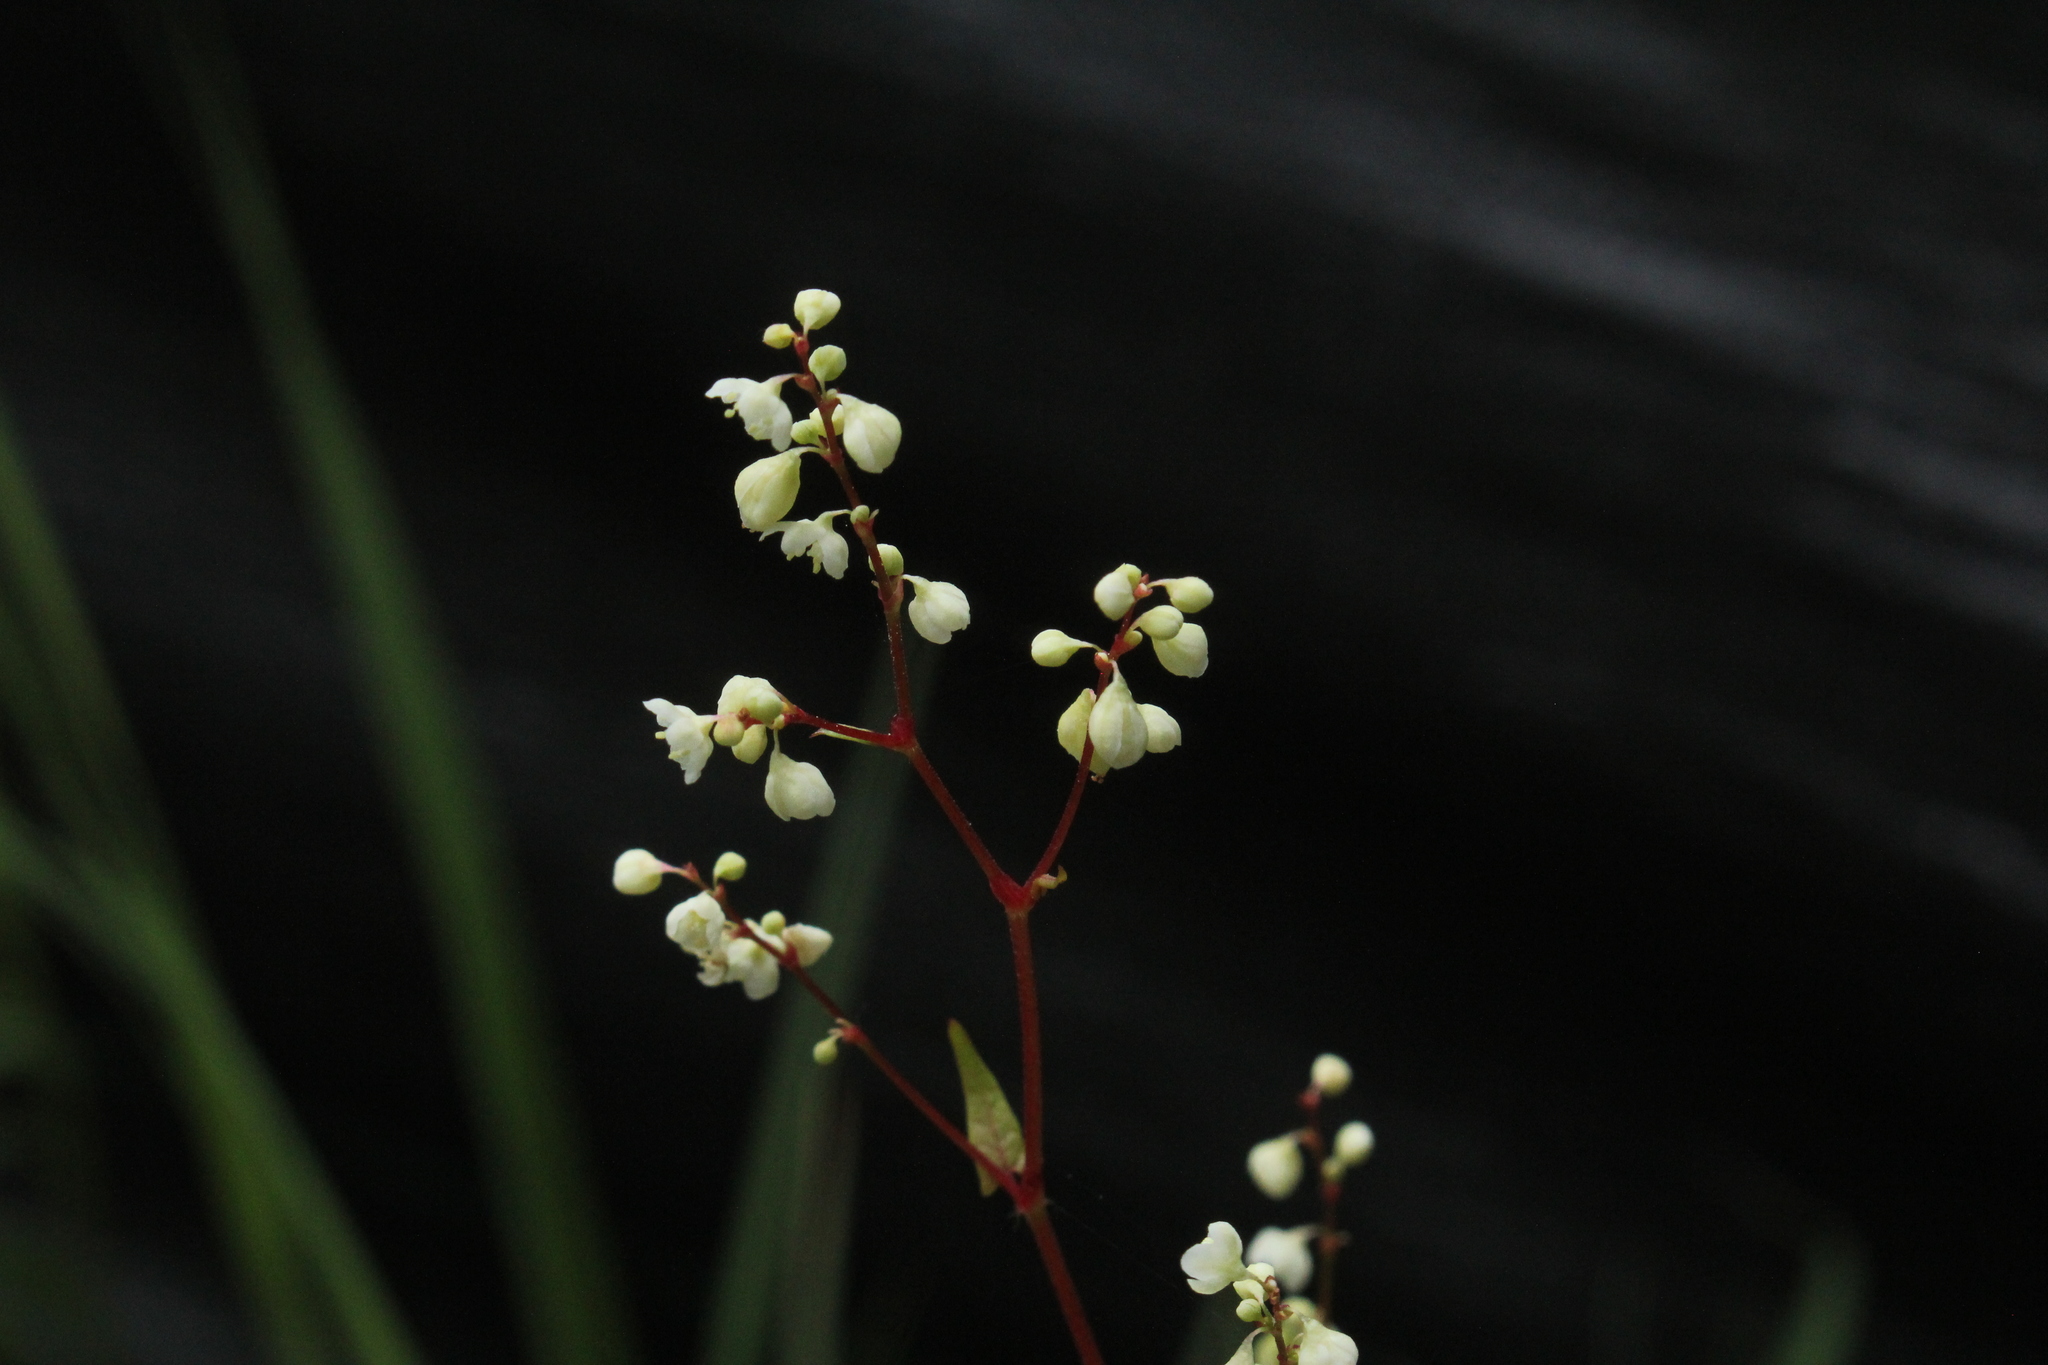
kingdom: Plantae
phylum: Tracheophyta
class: Magnoliopsida
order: Caryophyllales
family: Polygonaceae
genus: Parogonum
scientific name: Parogonum ciliinode
